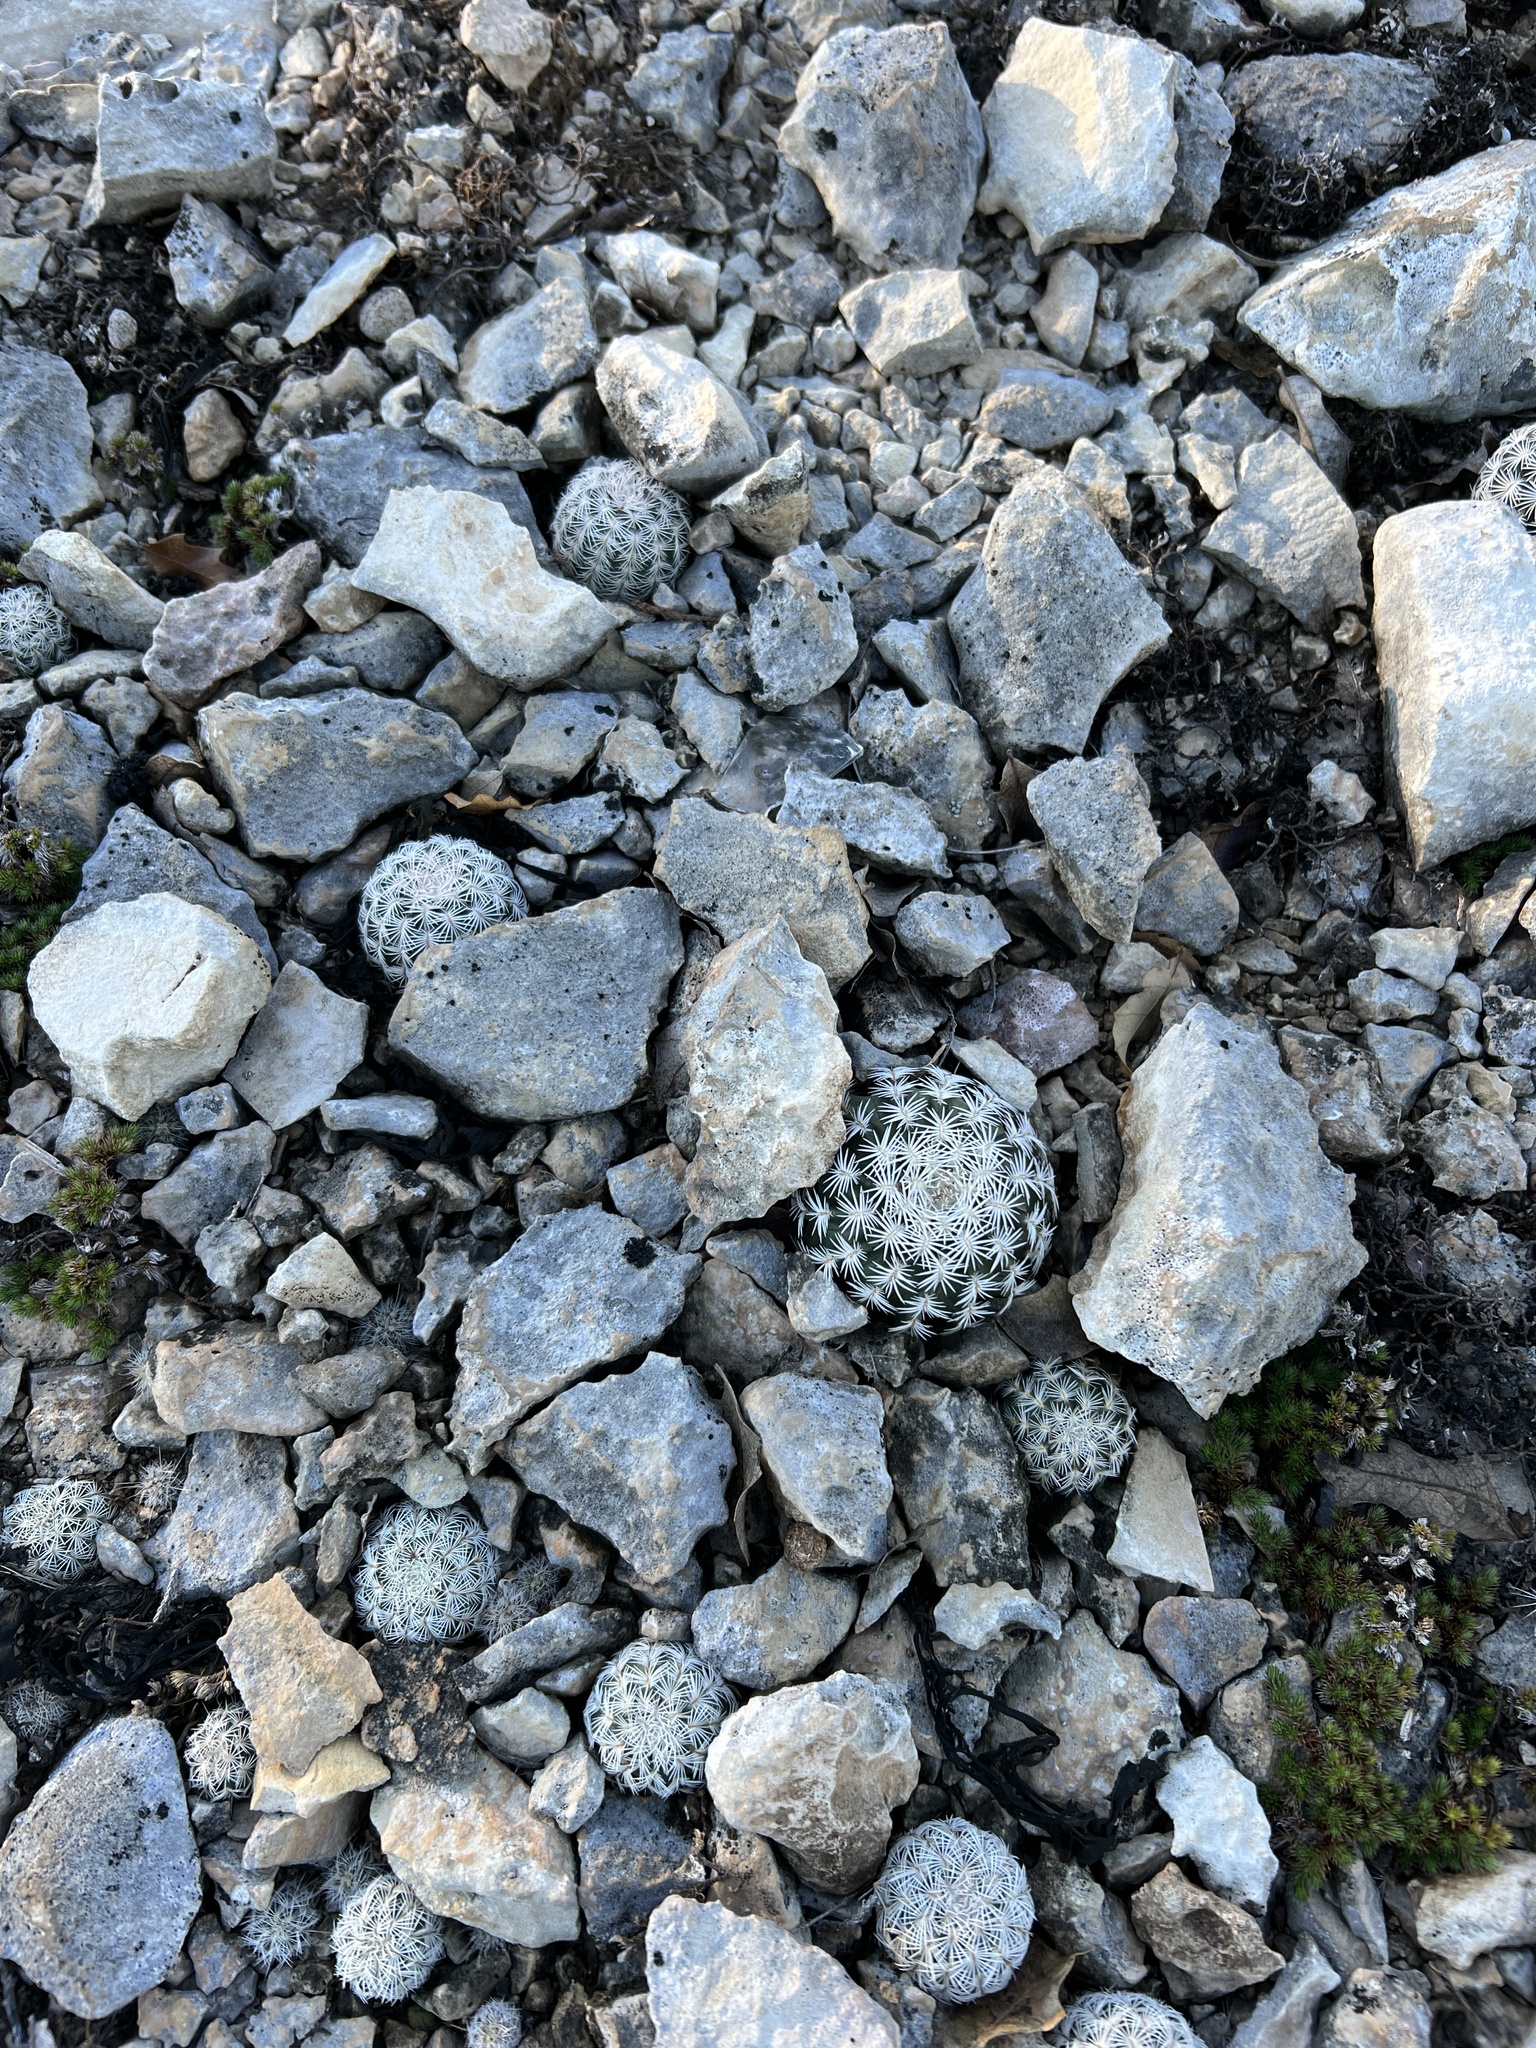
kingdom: Plantae
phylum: Tracheophyta
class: Magnoliopsida
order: Caryophyllales
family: Cactaceae
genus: Echinocereus
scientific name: Echinocereus reichenbachii
